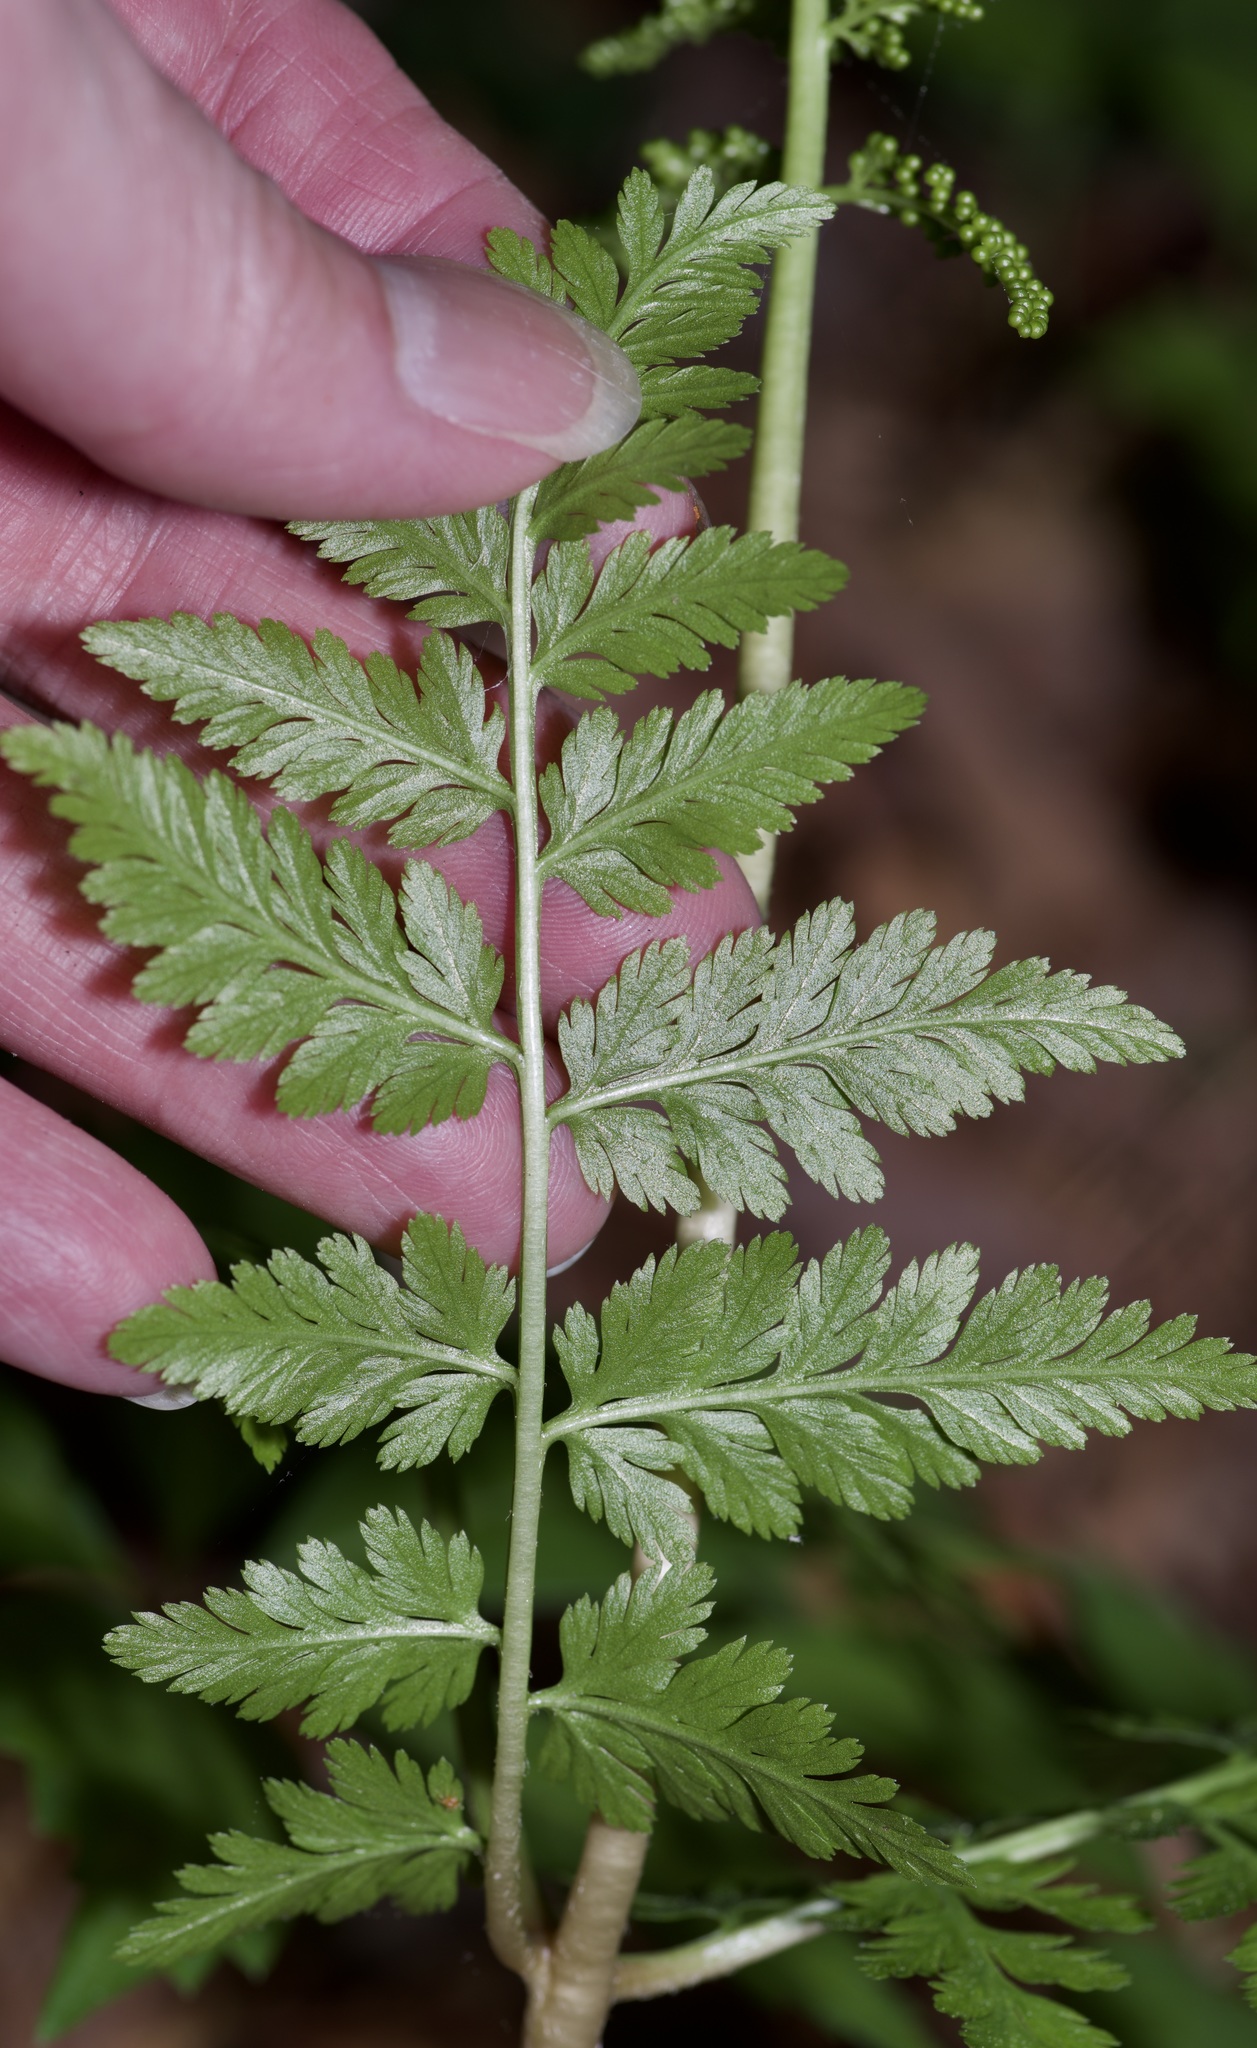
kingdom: Plantae
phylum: Tracheophyta
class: Polypodiopsida
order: Ophioglossales
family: Ophioglossaceae
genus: Botrypus
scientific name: Botrypus virginianus
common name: Common grapefern
